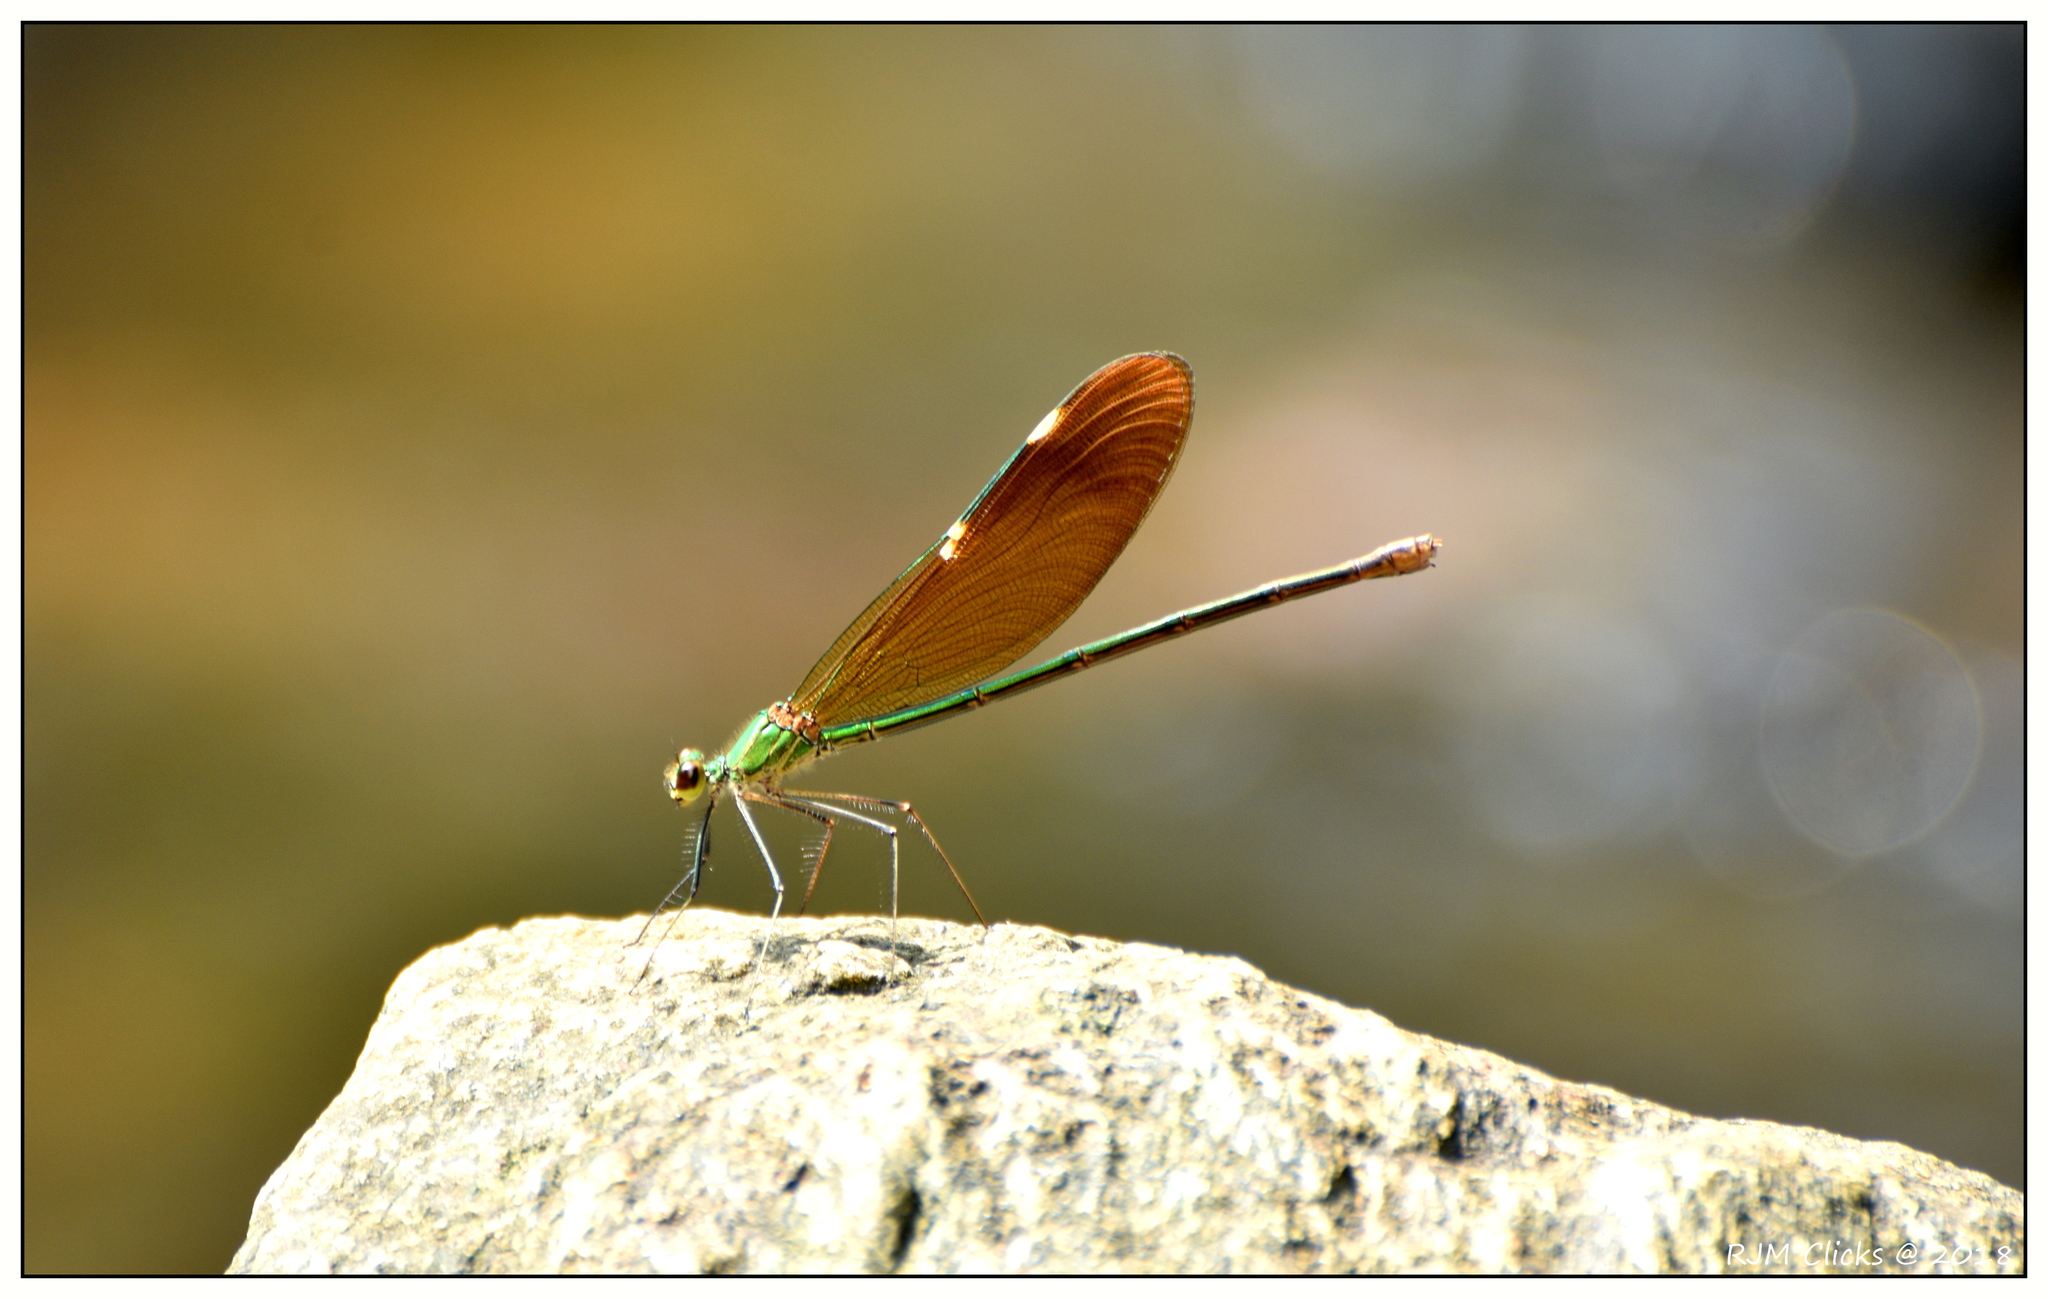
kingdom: Animalia
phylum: Arthropoda
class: Insecta
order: Odonata
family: Calopterygidae
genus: Neurobasis
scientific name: Neurobasis chinensis
